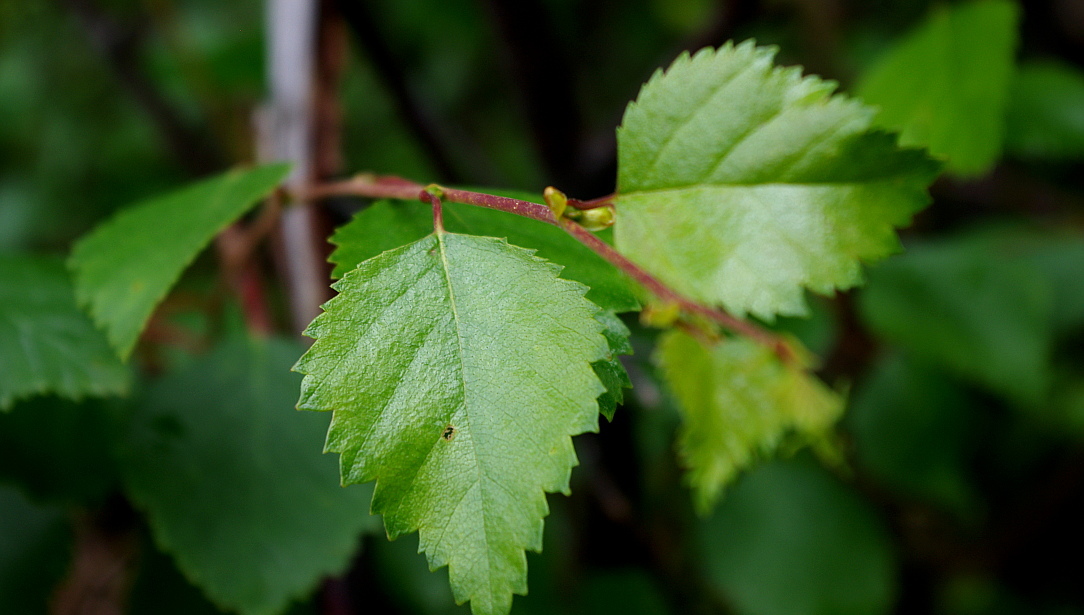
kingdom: Plantae
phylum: Tracheophyta
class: Magnoliopsida
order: Fagales
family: Betulaceae
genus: Betula
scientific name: Betula pendula
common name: Silver birch
